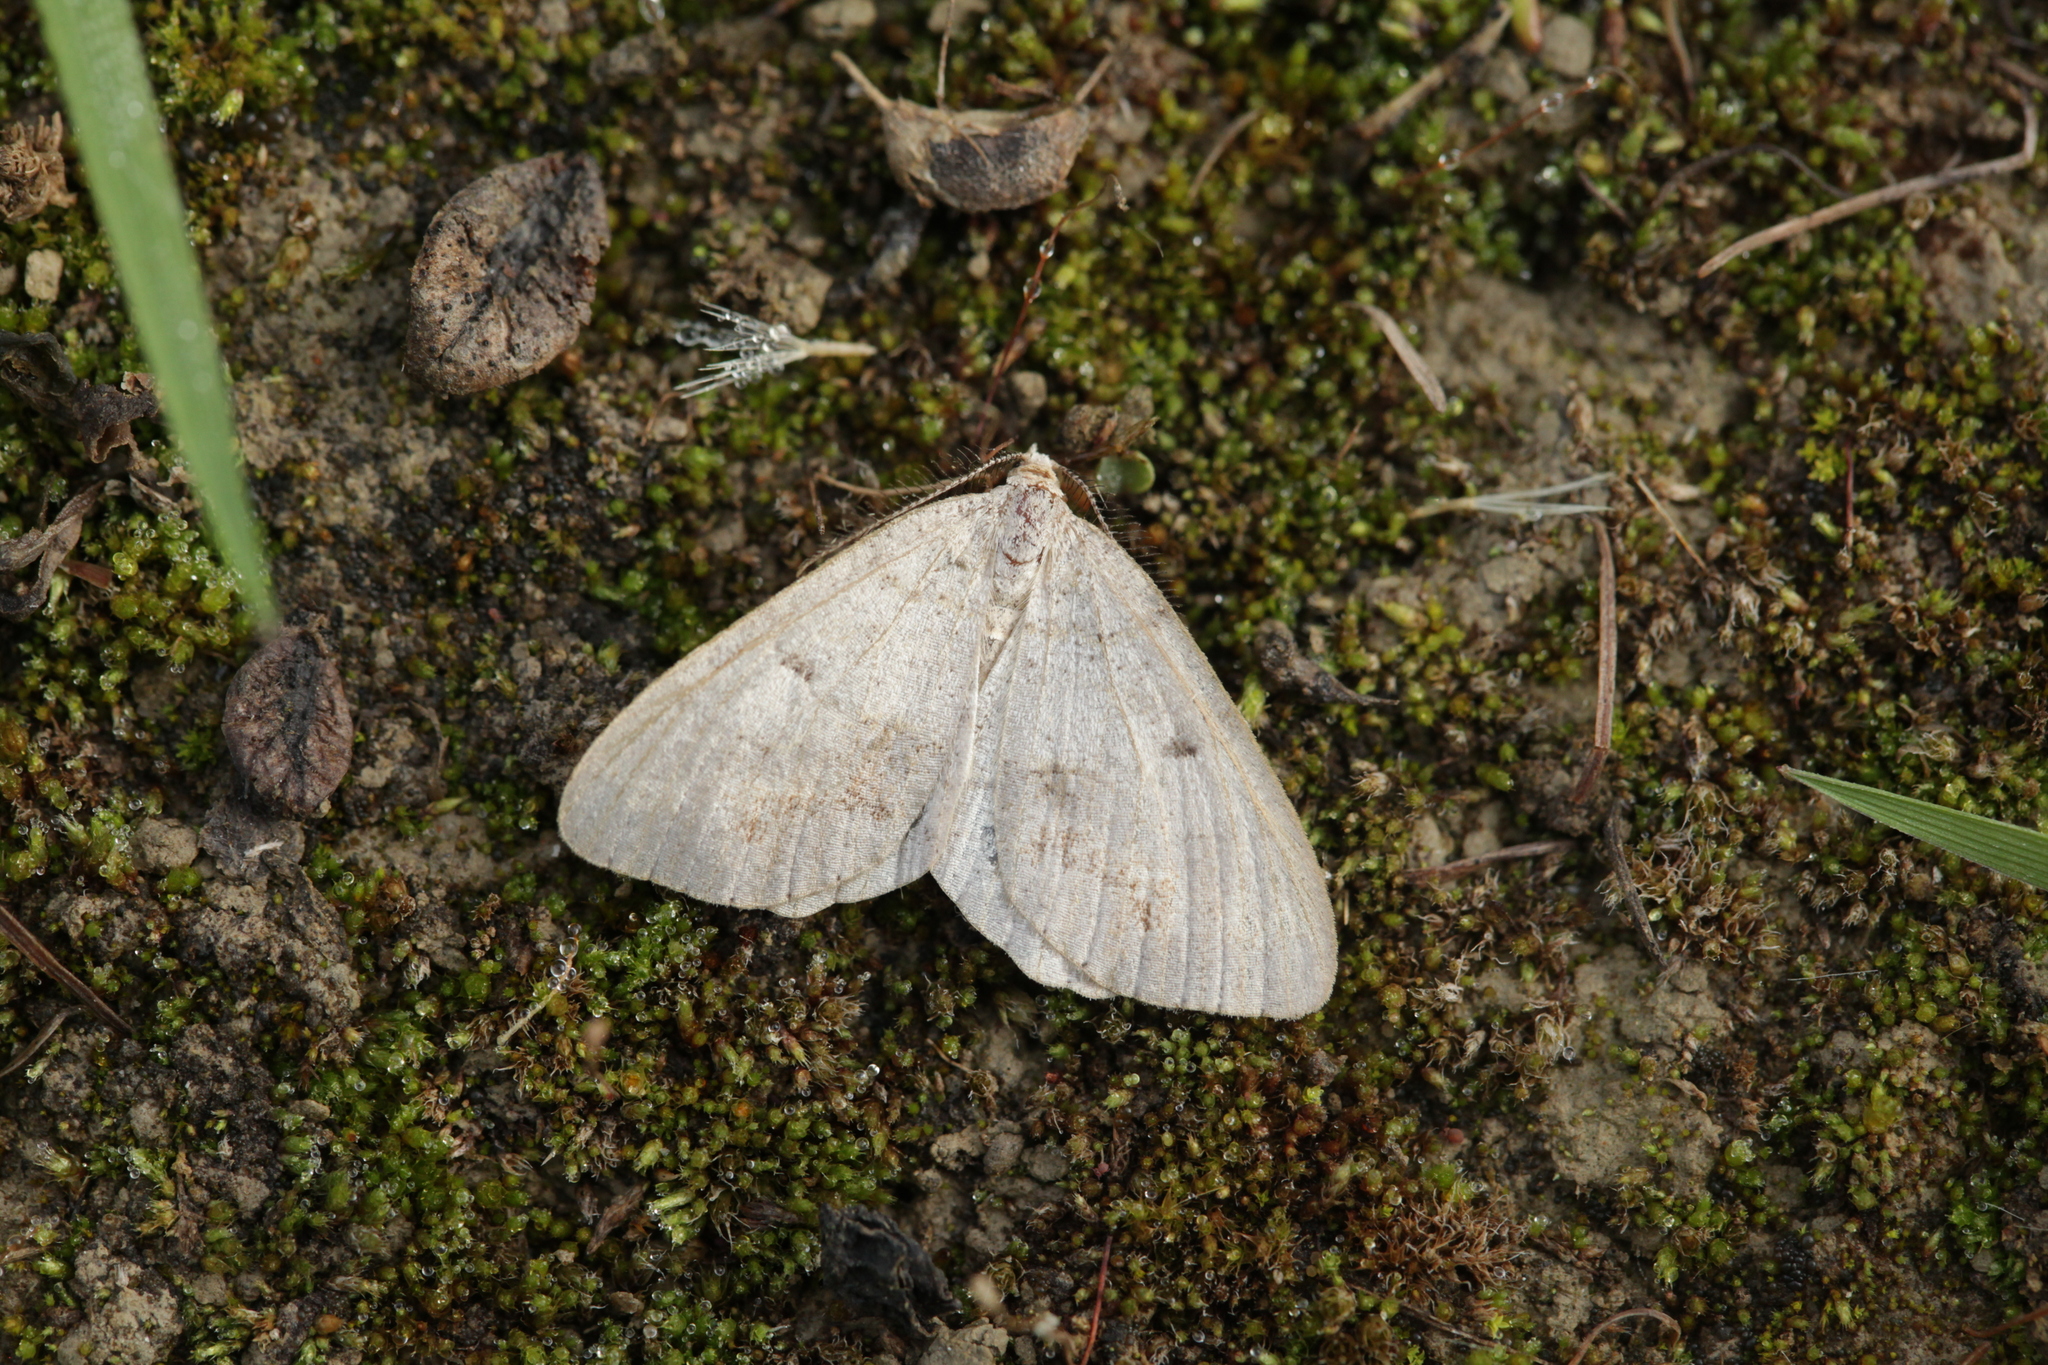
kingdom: Animalia
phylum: Arthropoda
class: Insecta
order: Lepidoptera
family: Geometridae
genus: Macaria
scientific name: Macaria loricaria
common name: False bruce spanworm
